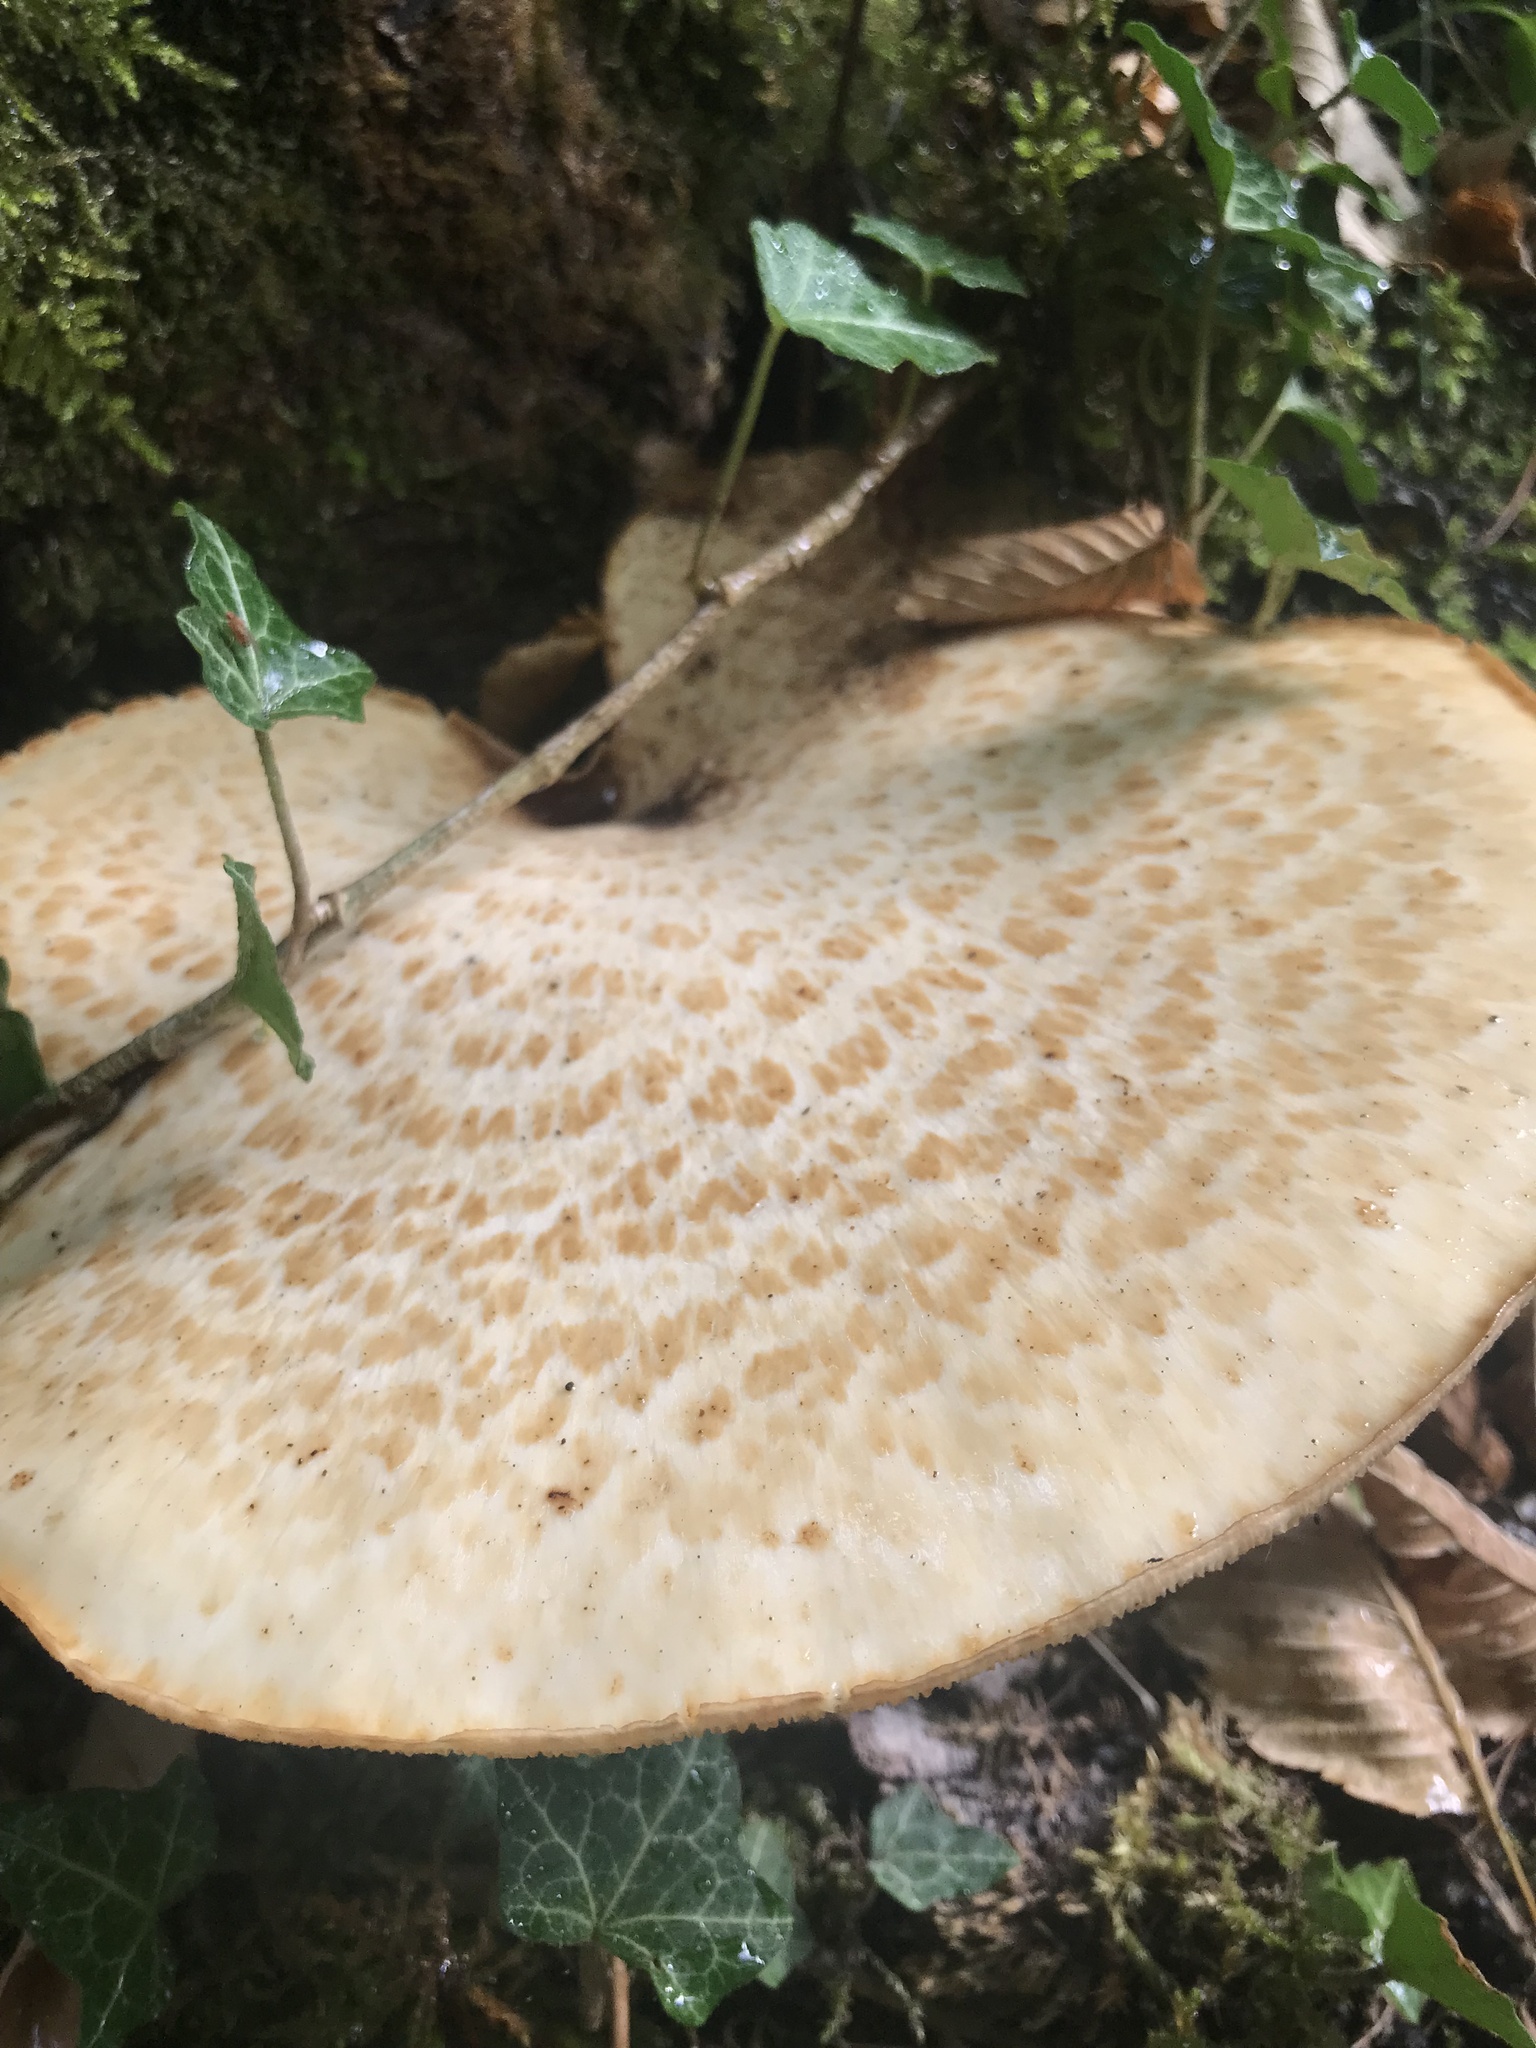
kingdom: Fungi
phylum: Basidiomycota
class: Agaricomycetes
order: Polyporales
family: Polyporaceae
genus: Cerioporus
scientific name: Cerioporus squamosus
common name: Dryad's saddle
